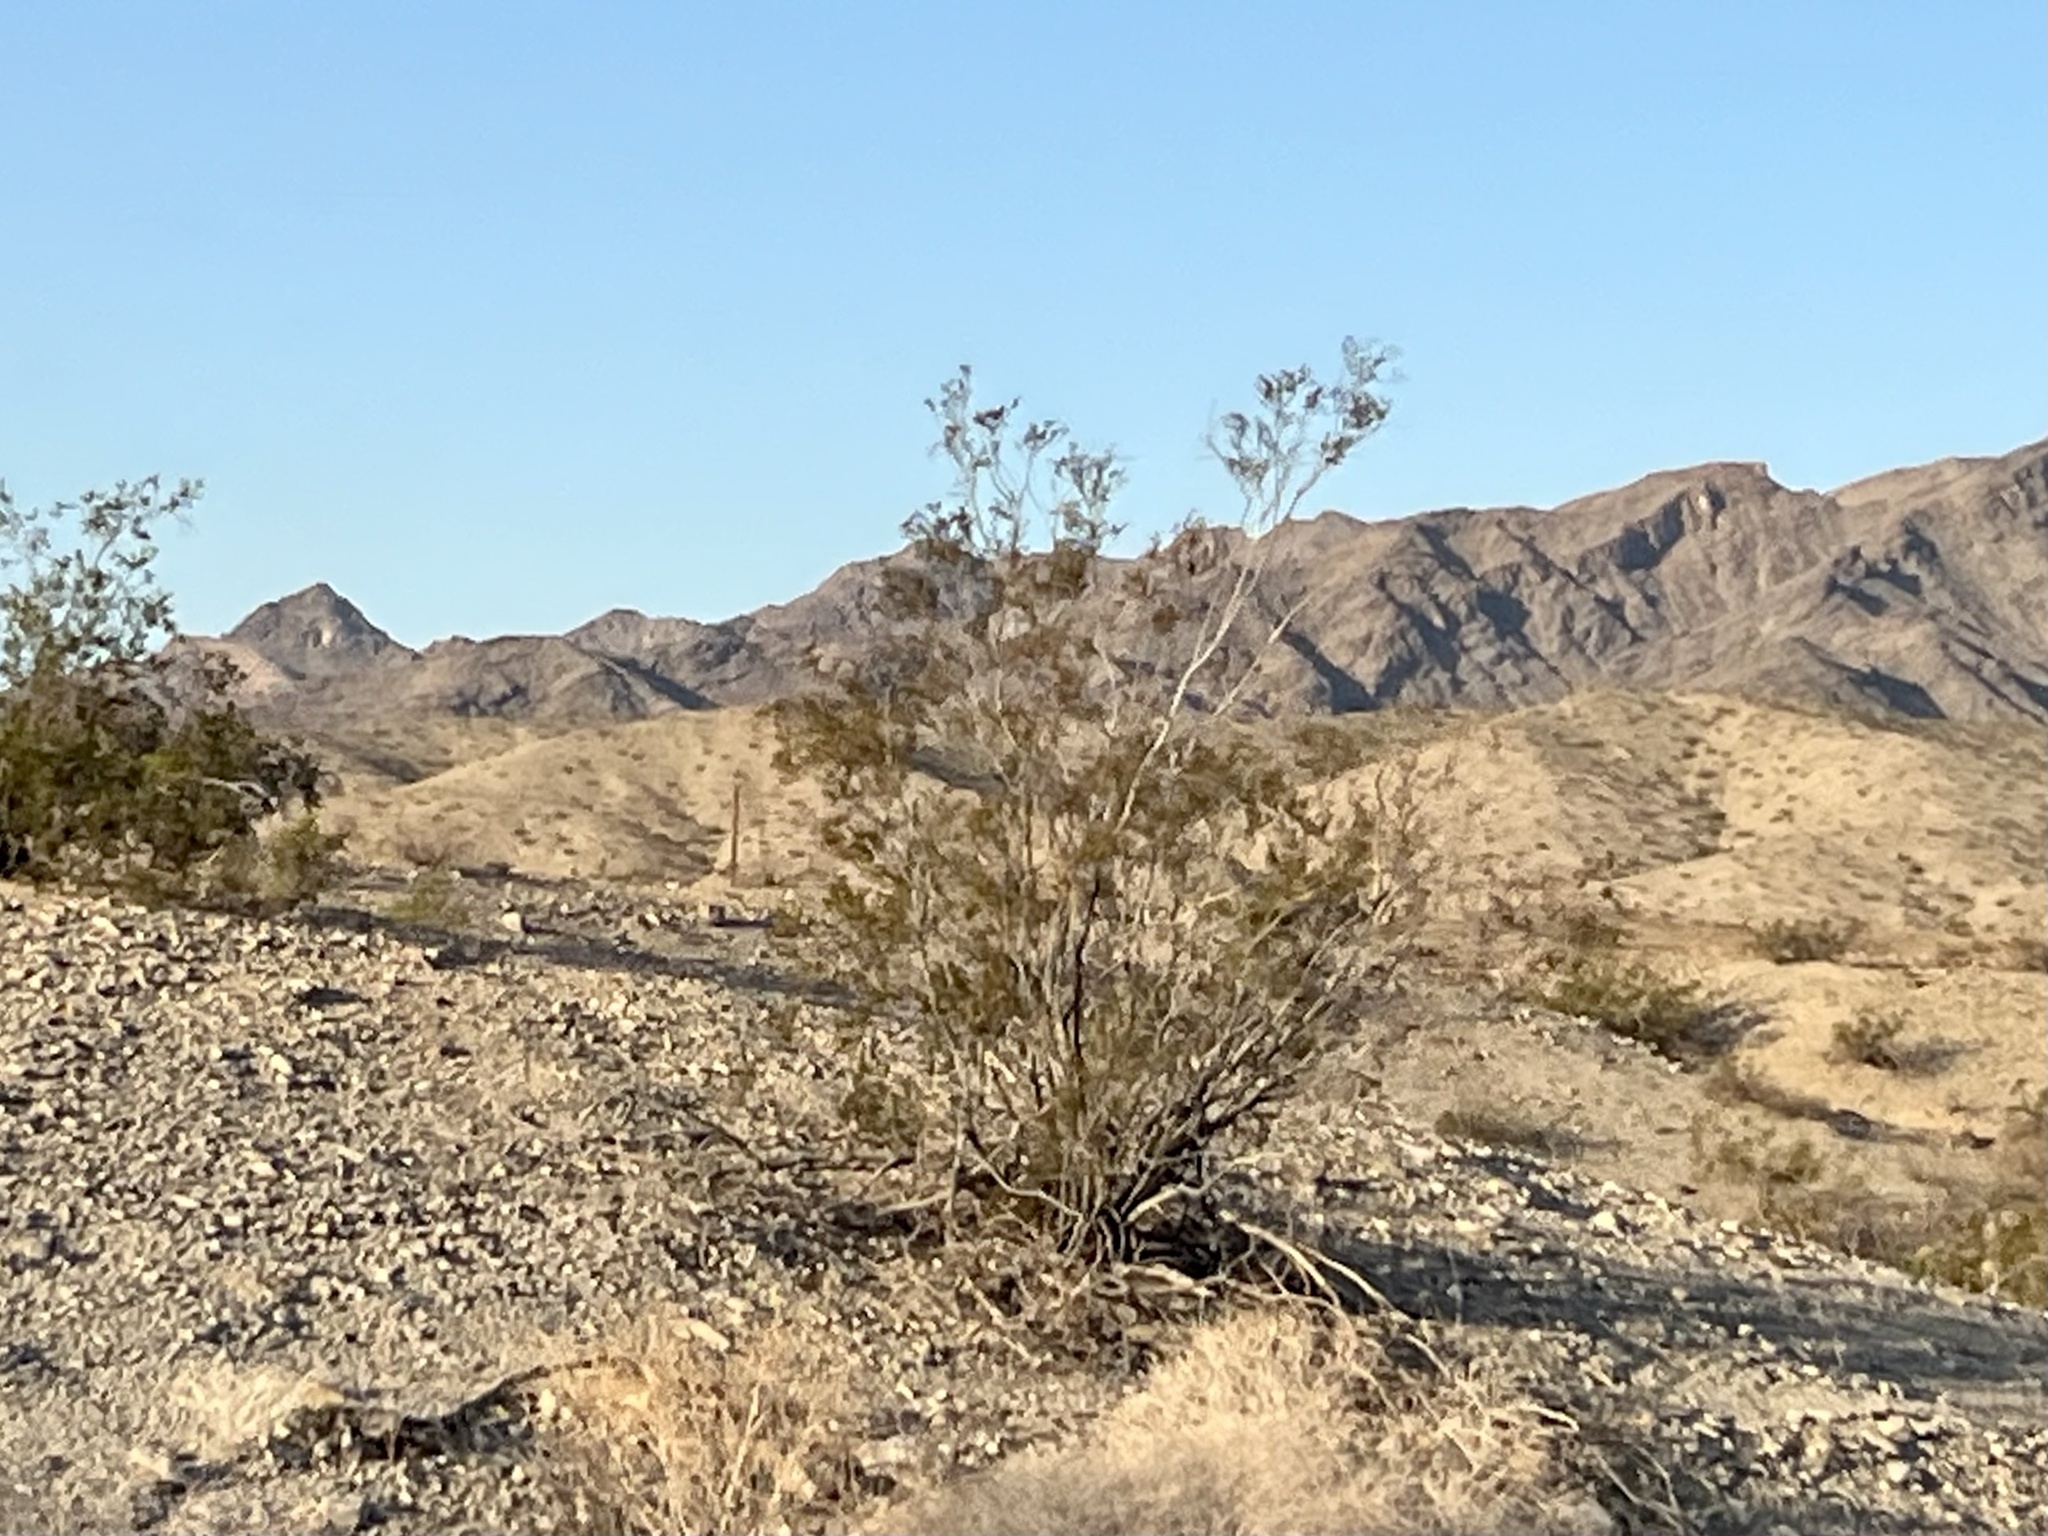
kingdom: Plantae
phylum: Tracheophyta
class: Magnoliopsida
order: Zygophyllales
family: Zygophyllaceae
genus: Larrea
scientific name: Larrea tridentata
